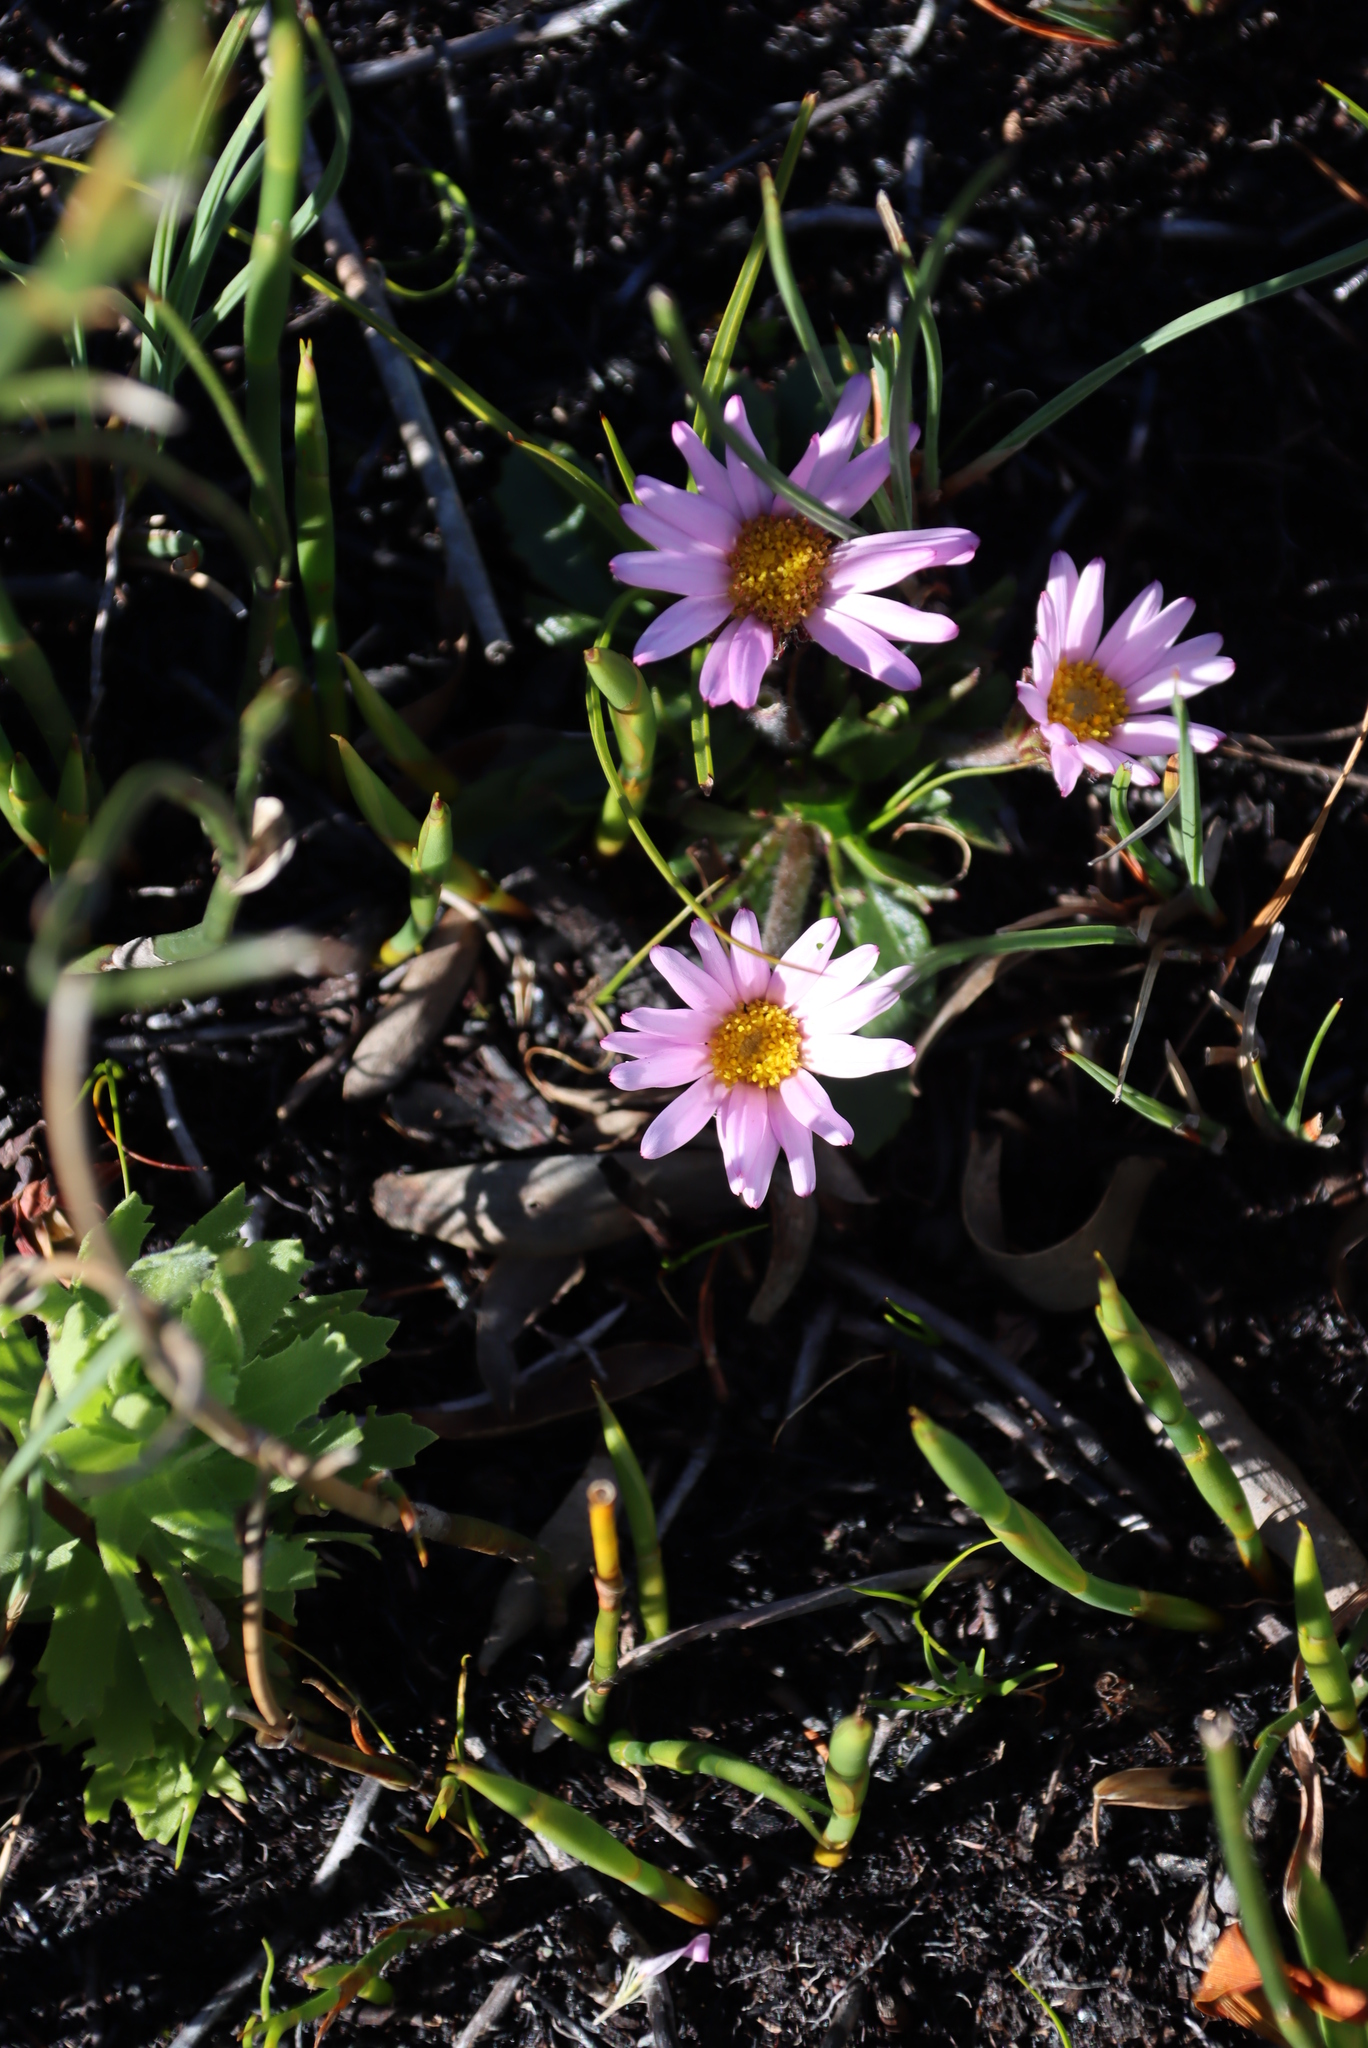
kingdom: Plantae
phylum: Tracheophyta
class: Magnoliopsida
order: Asterales
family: Asteraceae
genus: Zyrphelis
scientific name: Zyrphelis crenata
